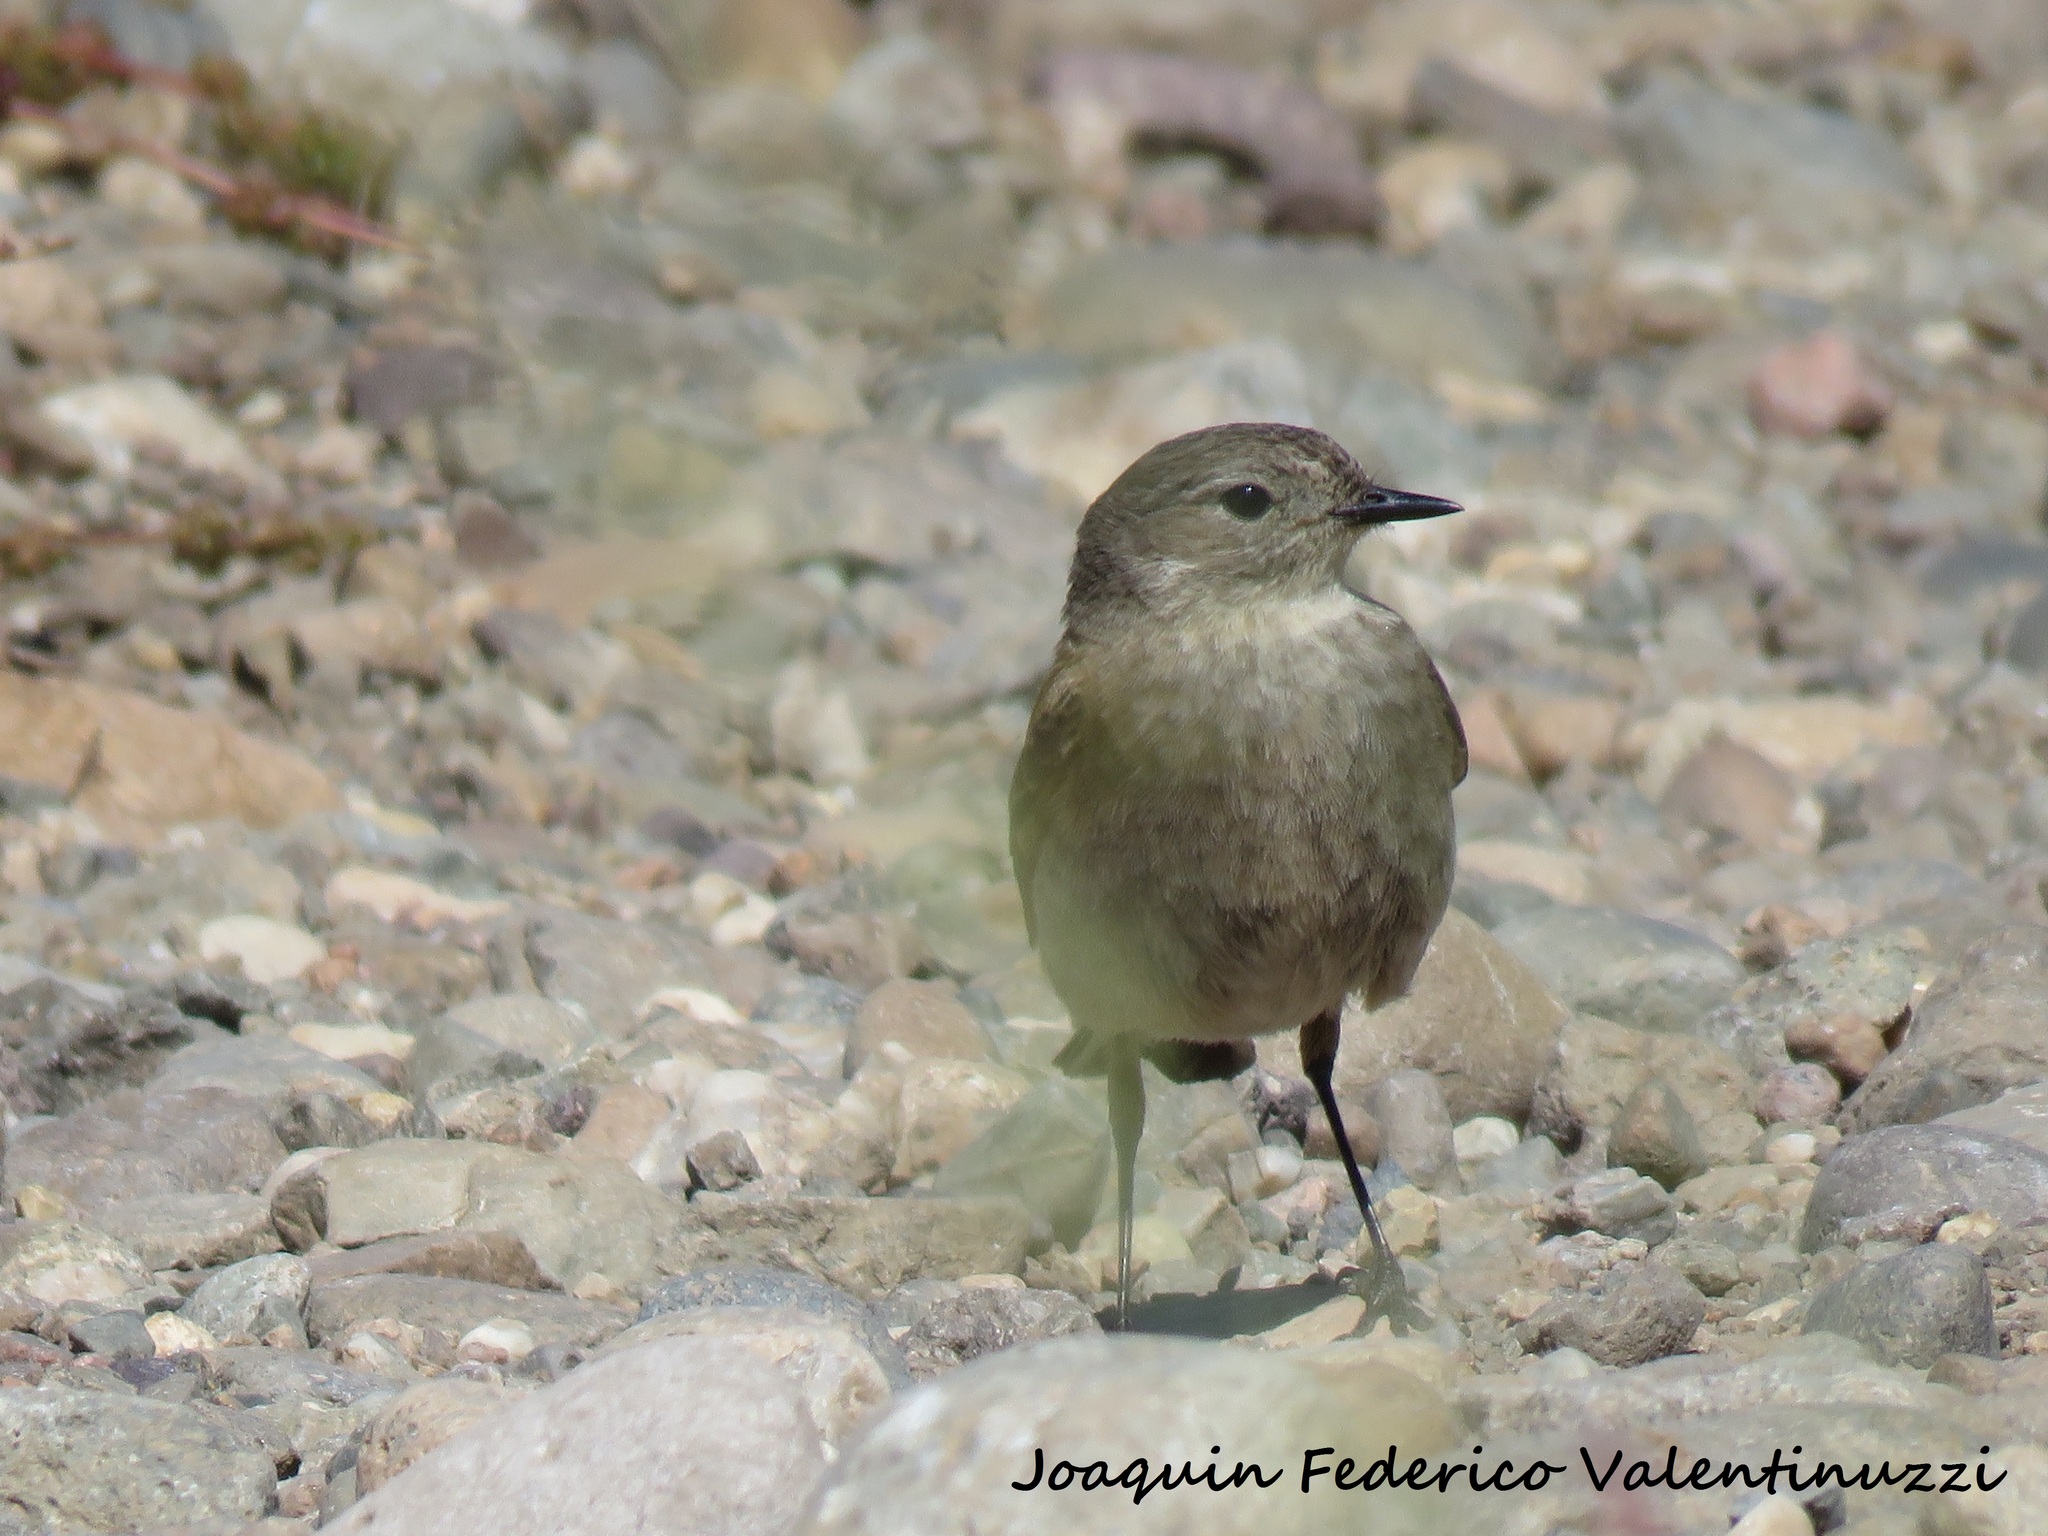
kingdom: Animalia
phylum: Chordata
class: Aves
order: Passeriformes
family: Tyrannidae
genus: Lessonia
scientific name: Lessonia rufa
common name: Austral negrito
